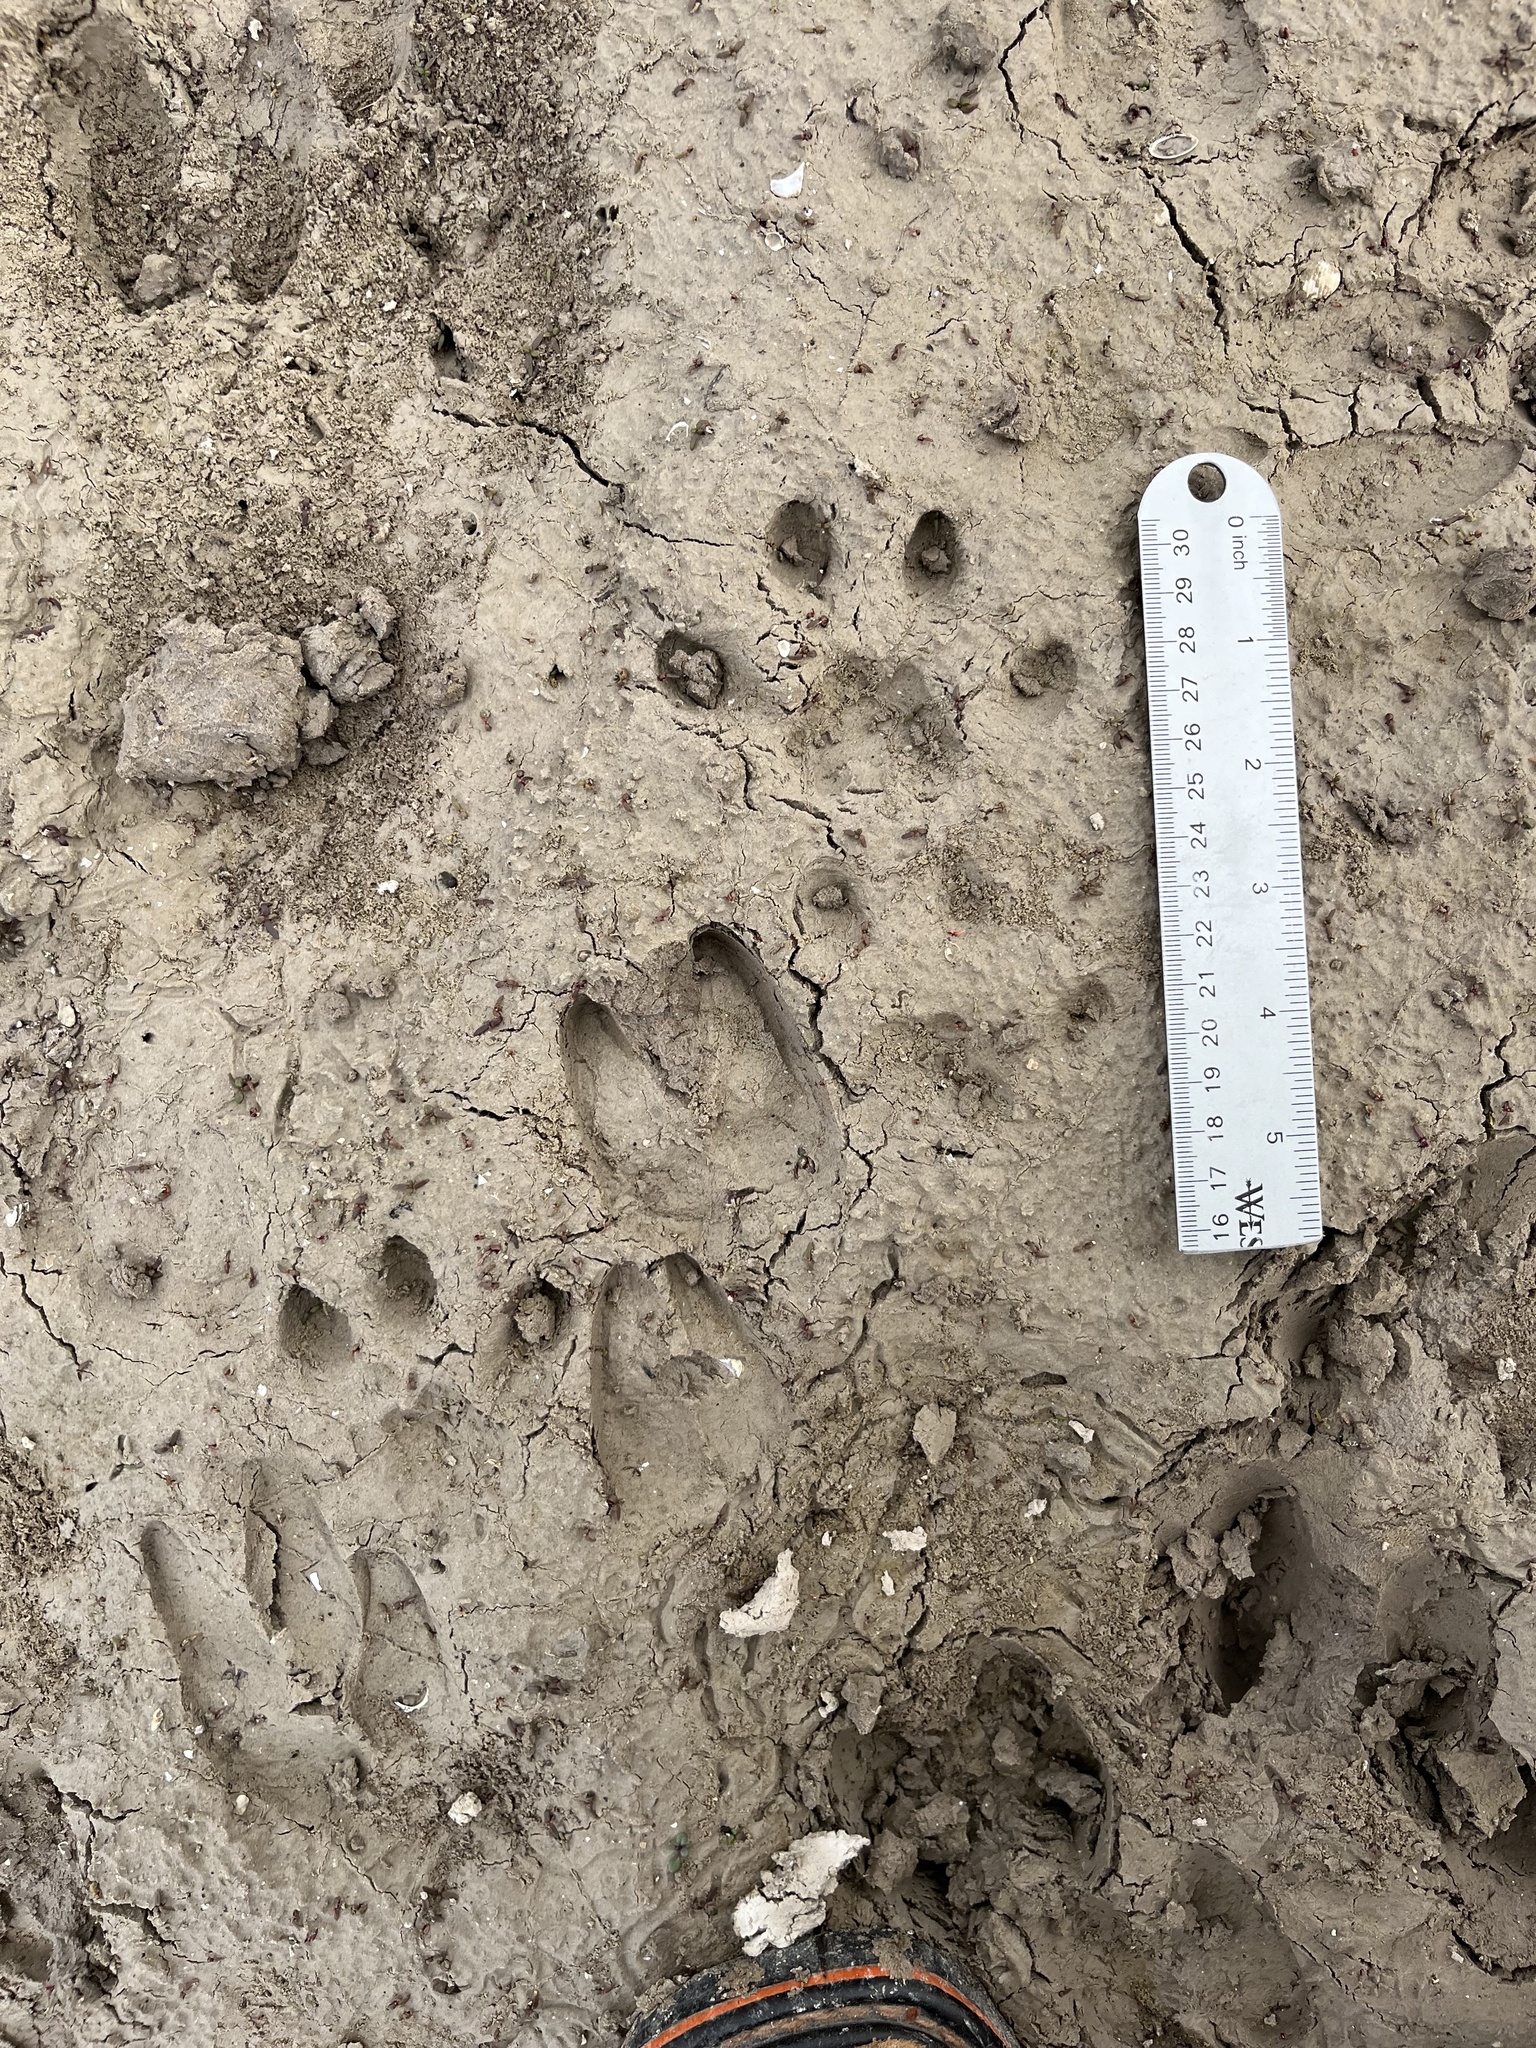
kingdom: Animalia
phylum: Chordata
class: Mammalia
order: Carnivora
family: Felidae
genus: Lynx
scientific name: Lynx rufus
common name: Bobcat
